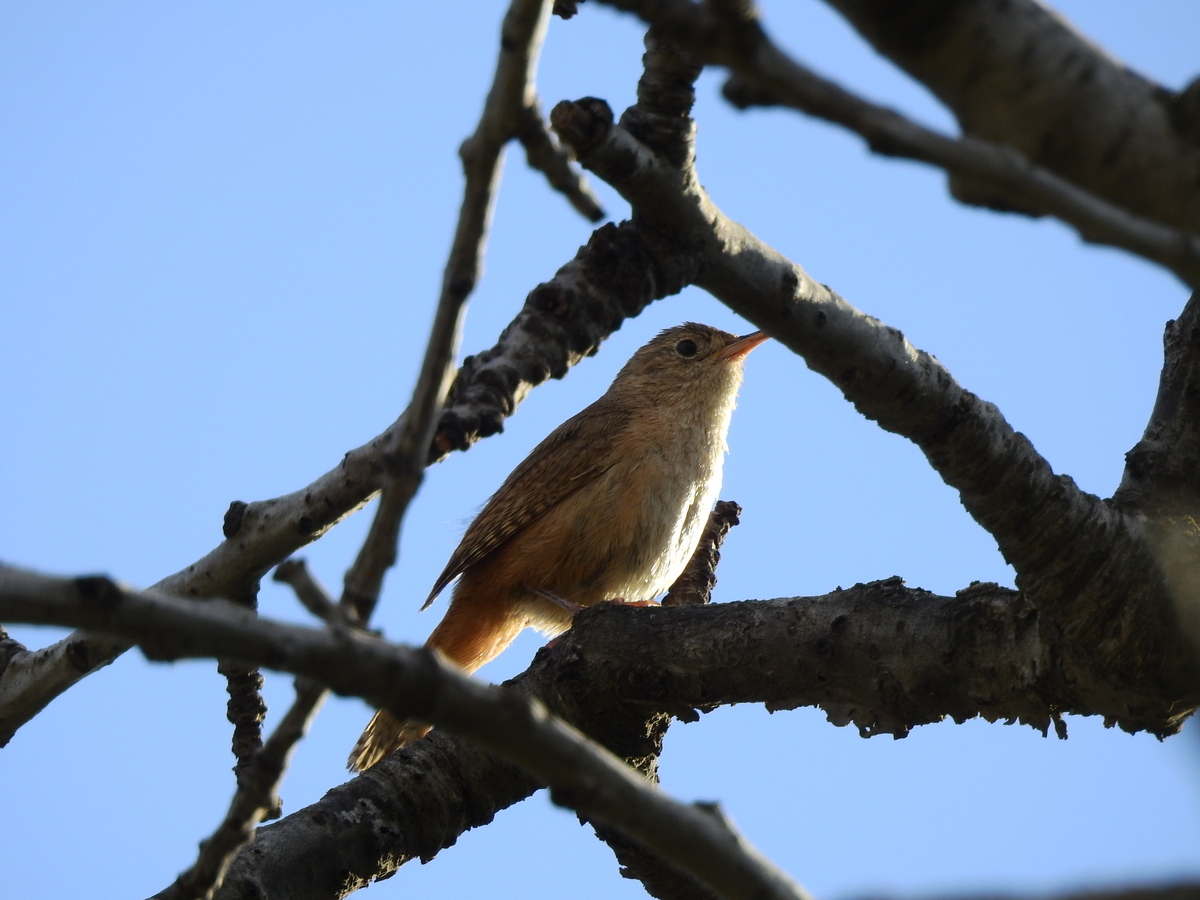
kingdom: Animalia
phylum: Chordata
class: Aves
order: Passeriformes
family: Troglodytidae
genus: Troglodytes
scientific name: Troglodytes aedon
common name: House wren
